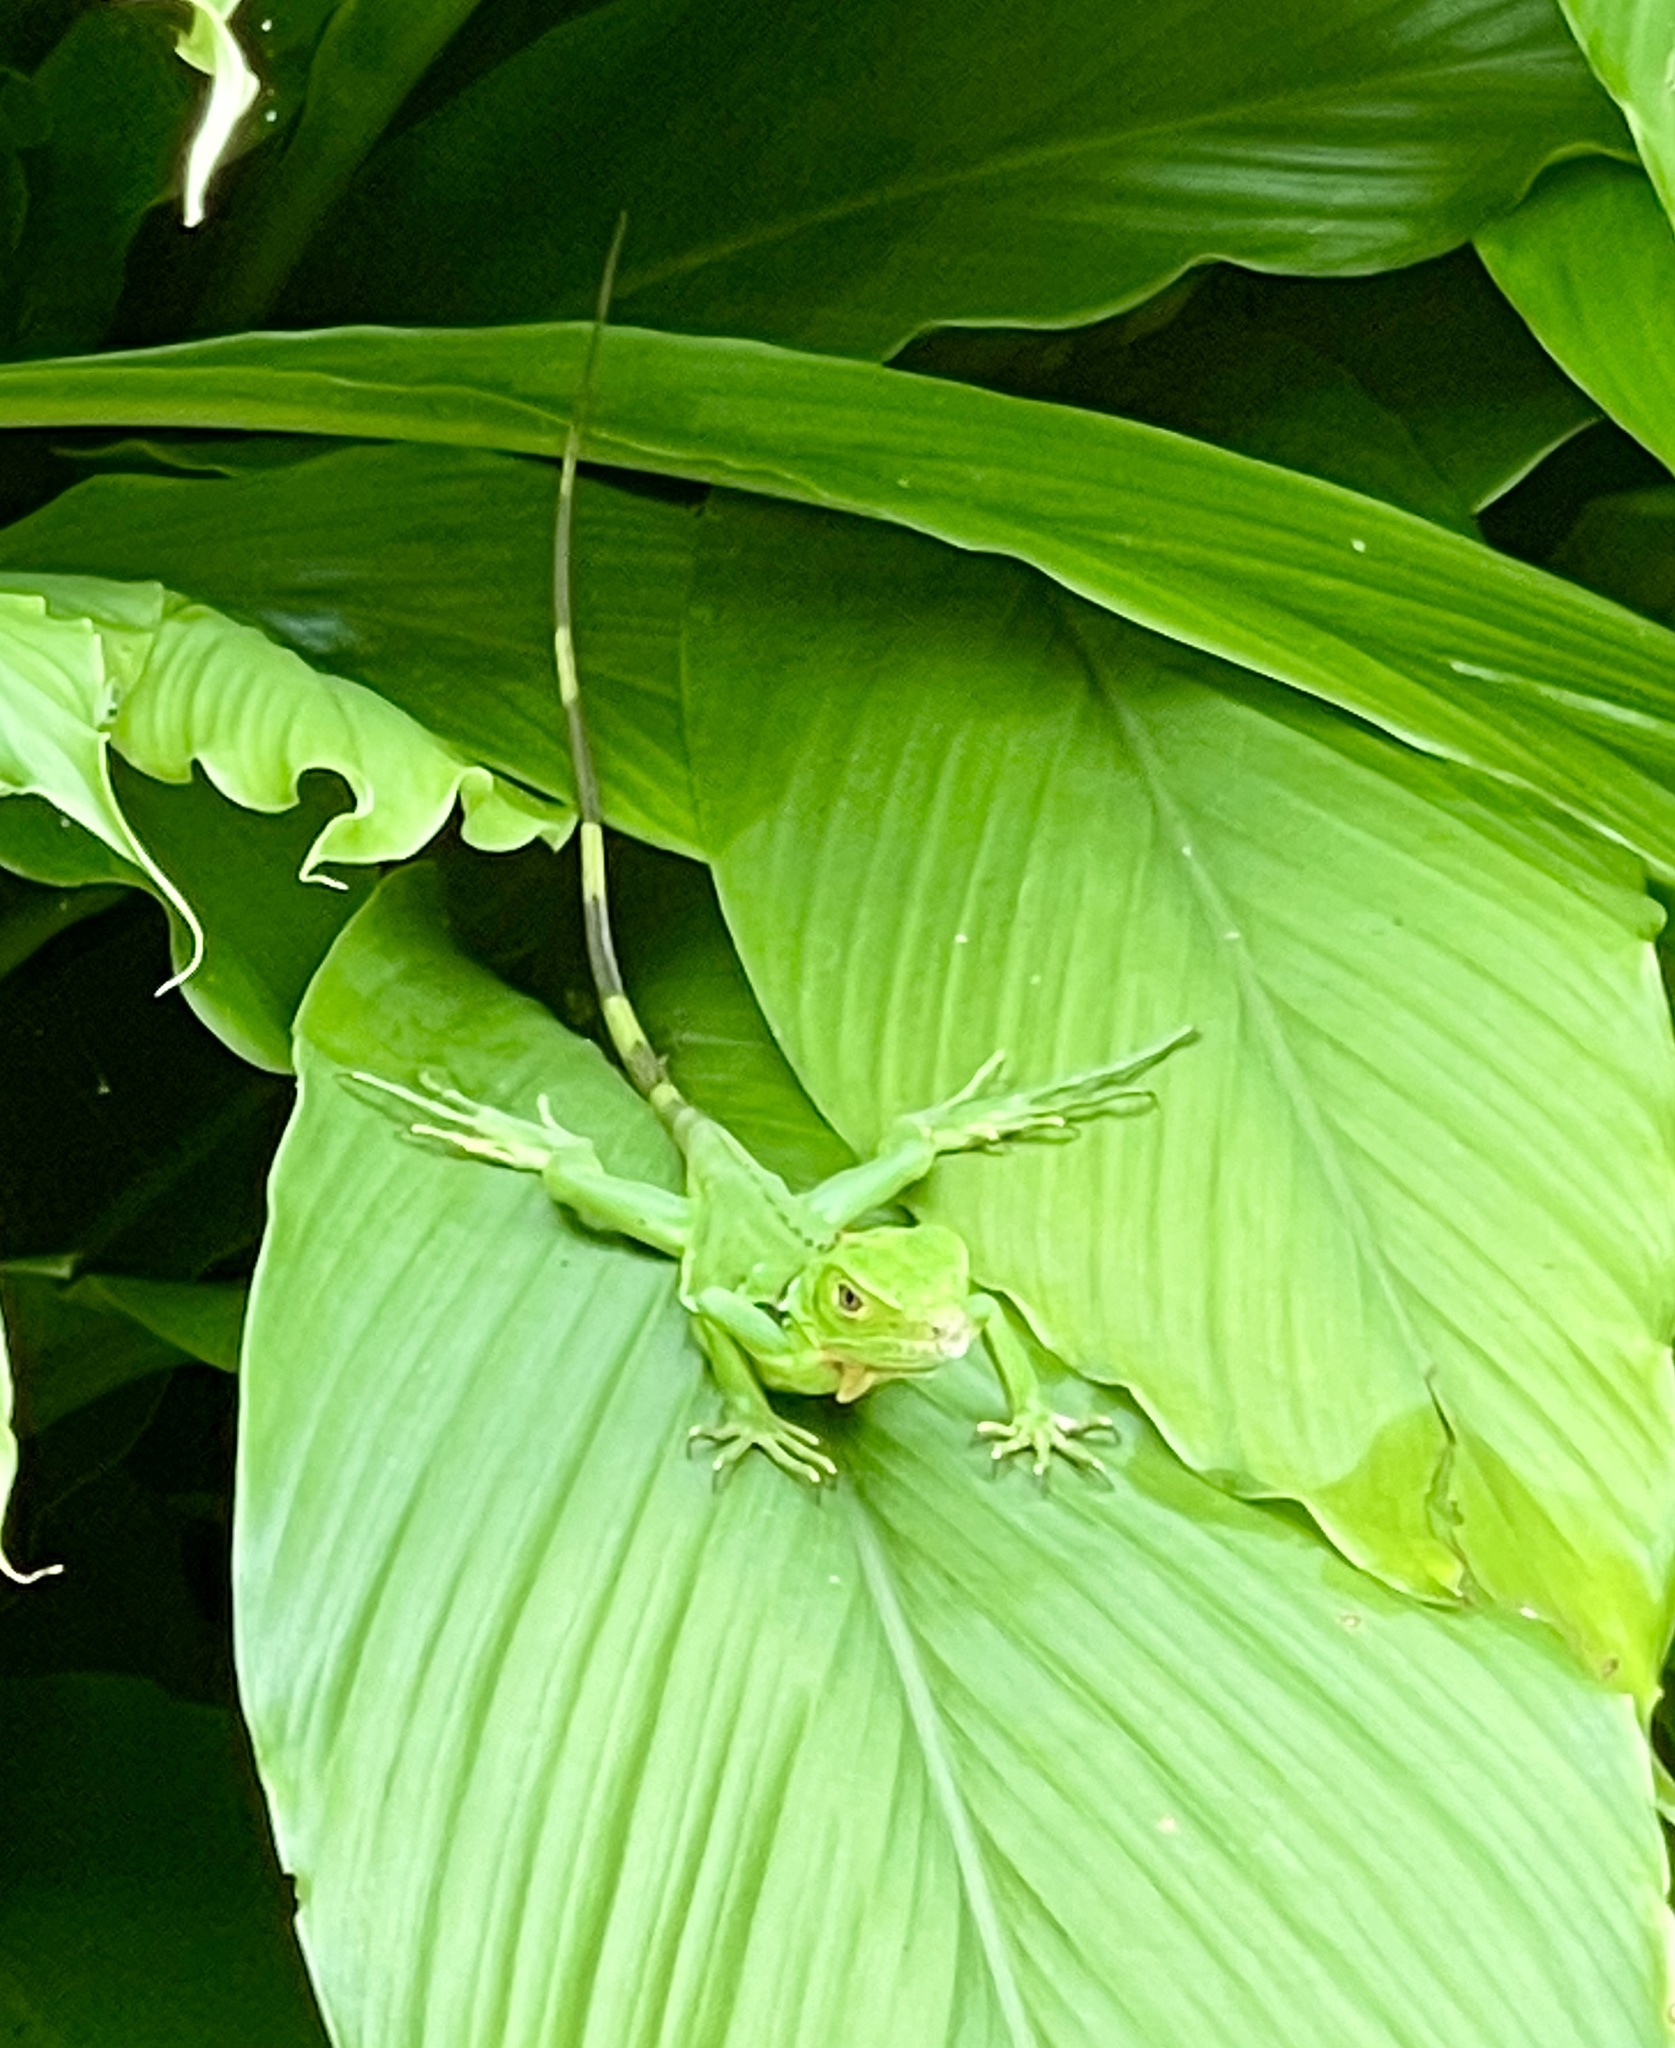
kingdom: Animalia
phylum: Chordata
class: Squamata
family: Iguanidae
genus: Iguana
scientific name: Iguana iguana
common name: Green iguana
